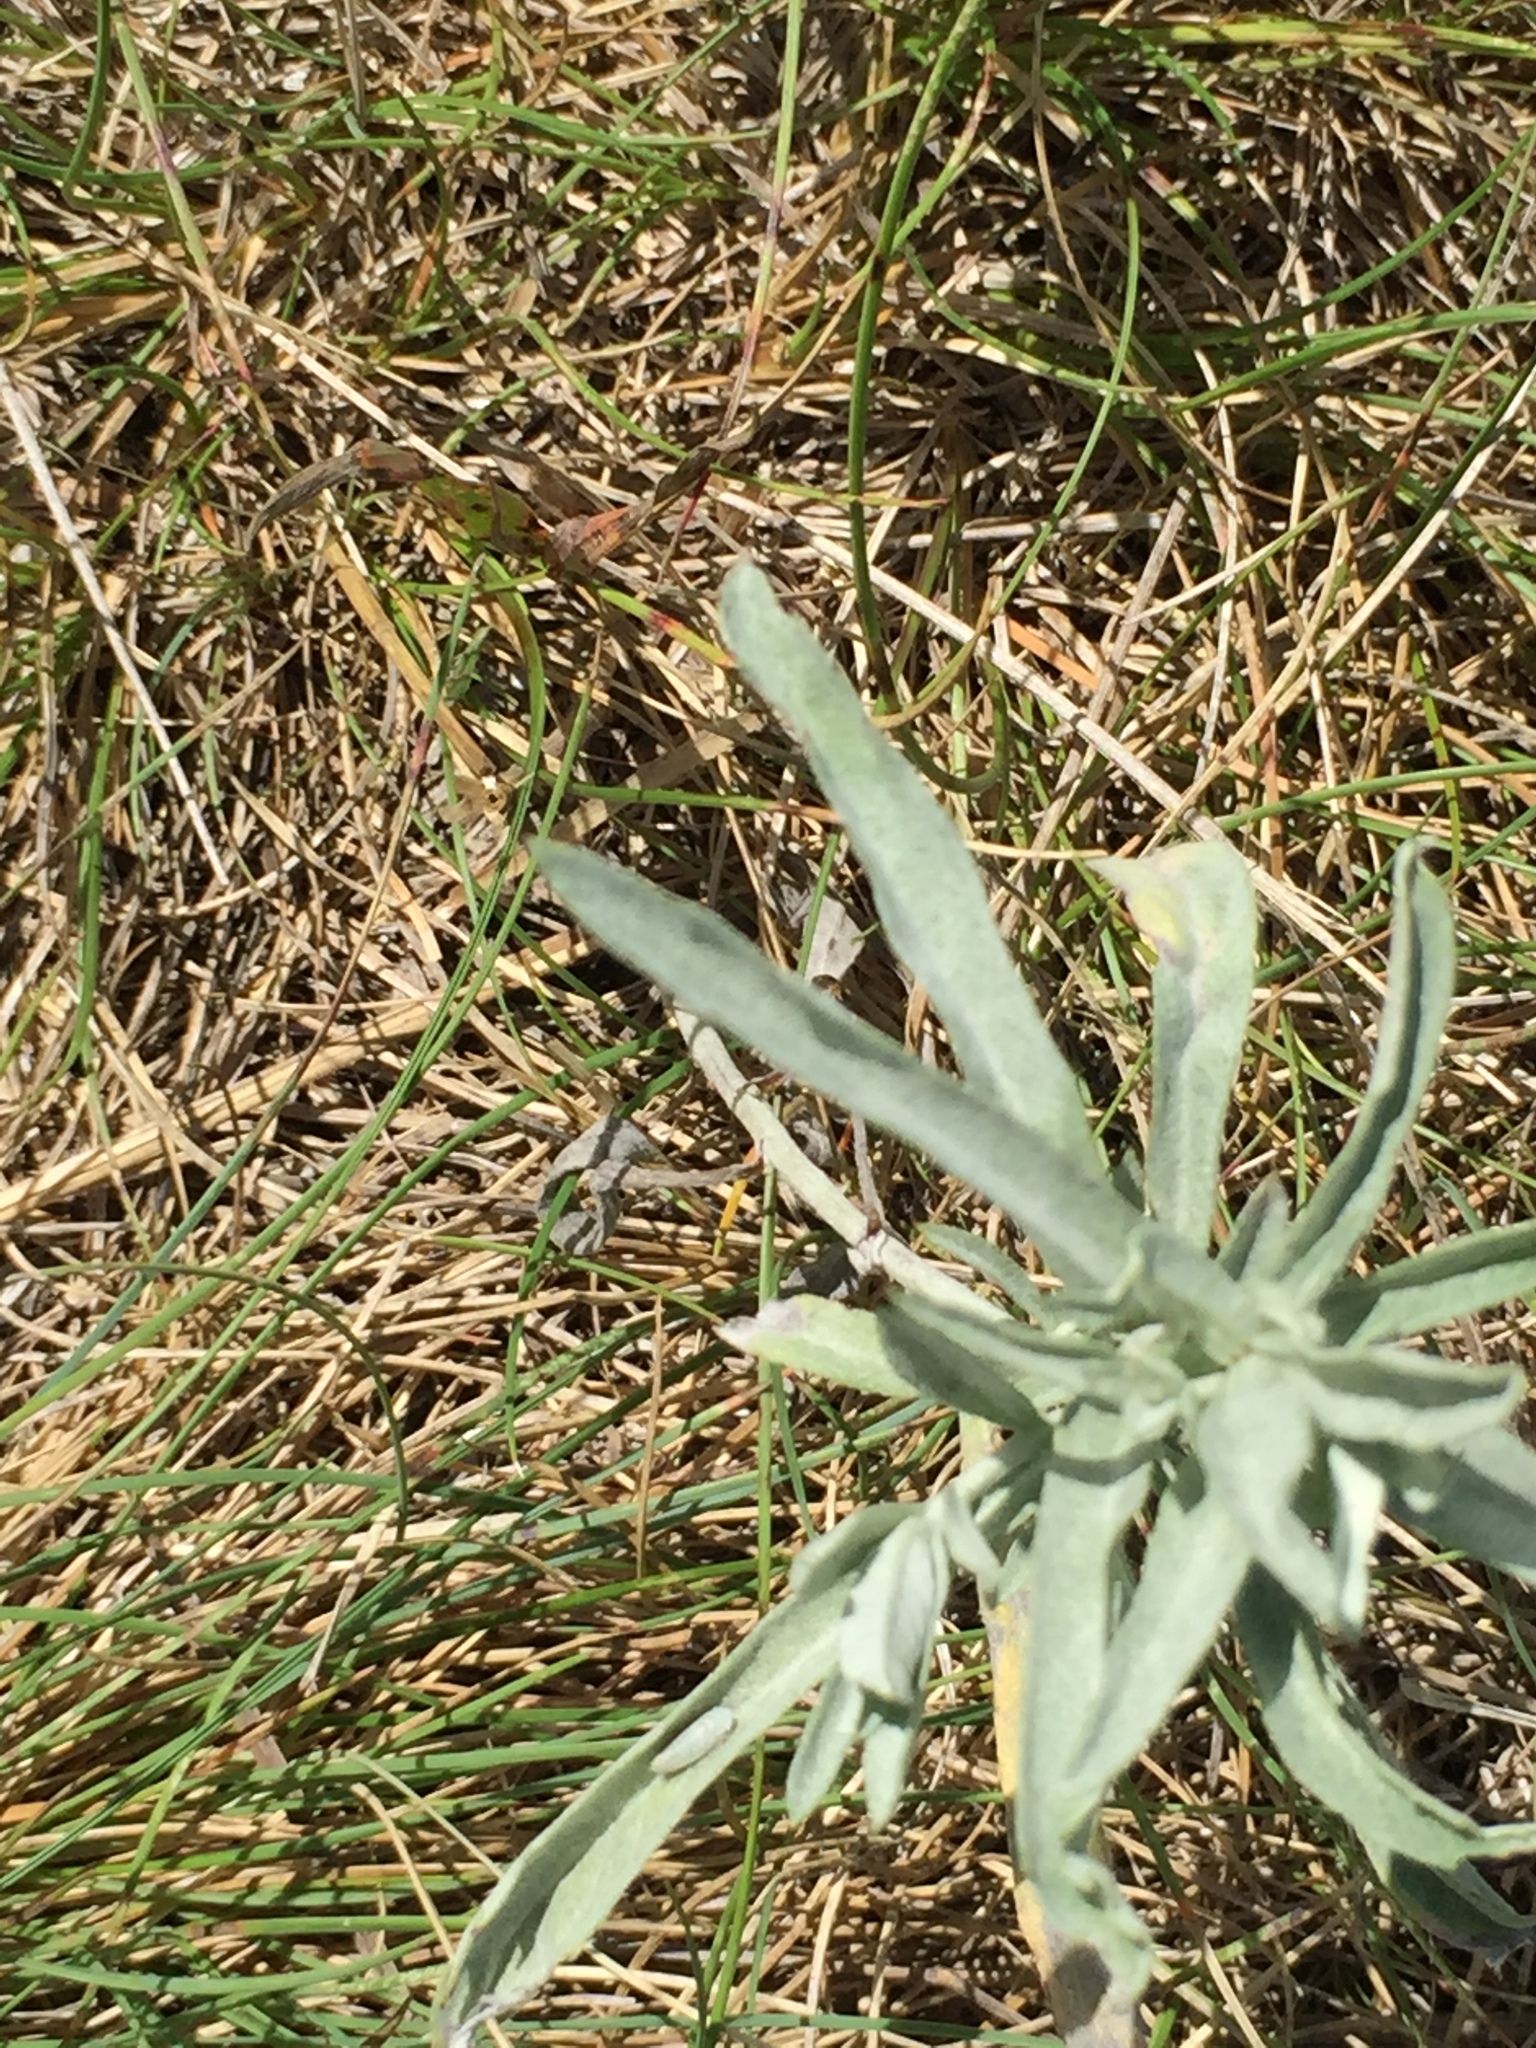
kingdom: Plantae
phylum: Tracheophyta
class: Magnoliopsida
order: Asterales
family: Asteraceae
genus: Artemisia
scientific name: Artemisia ludoviciana
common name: Western mugwort
